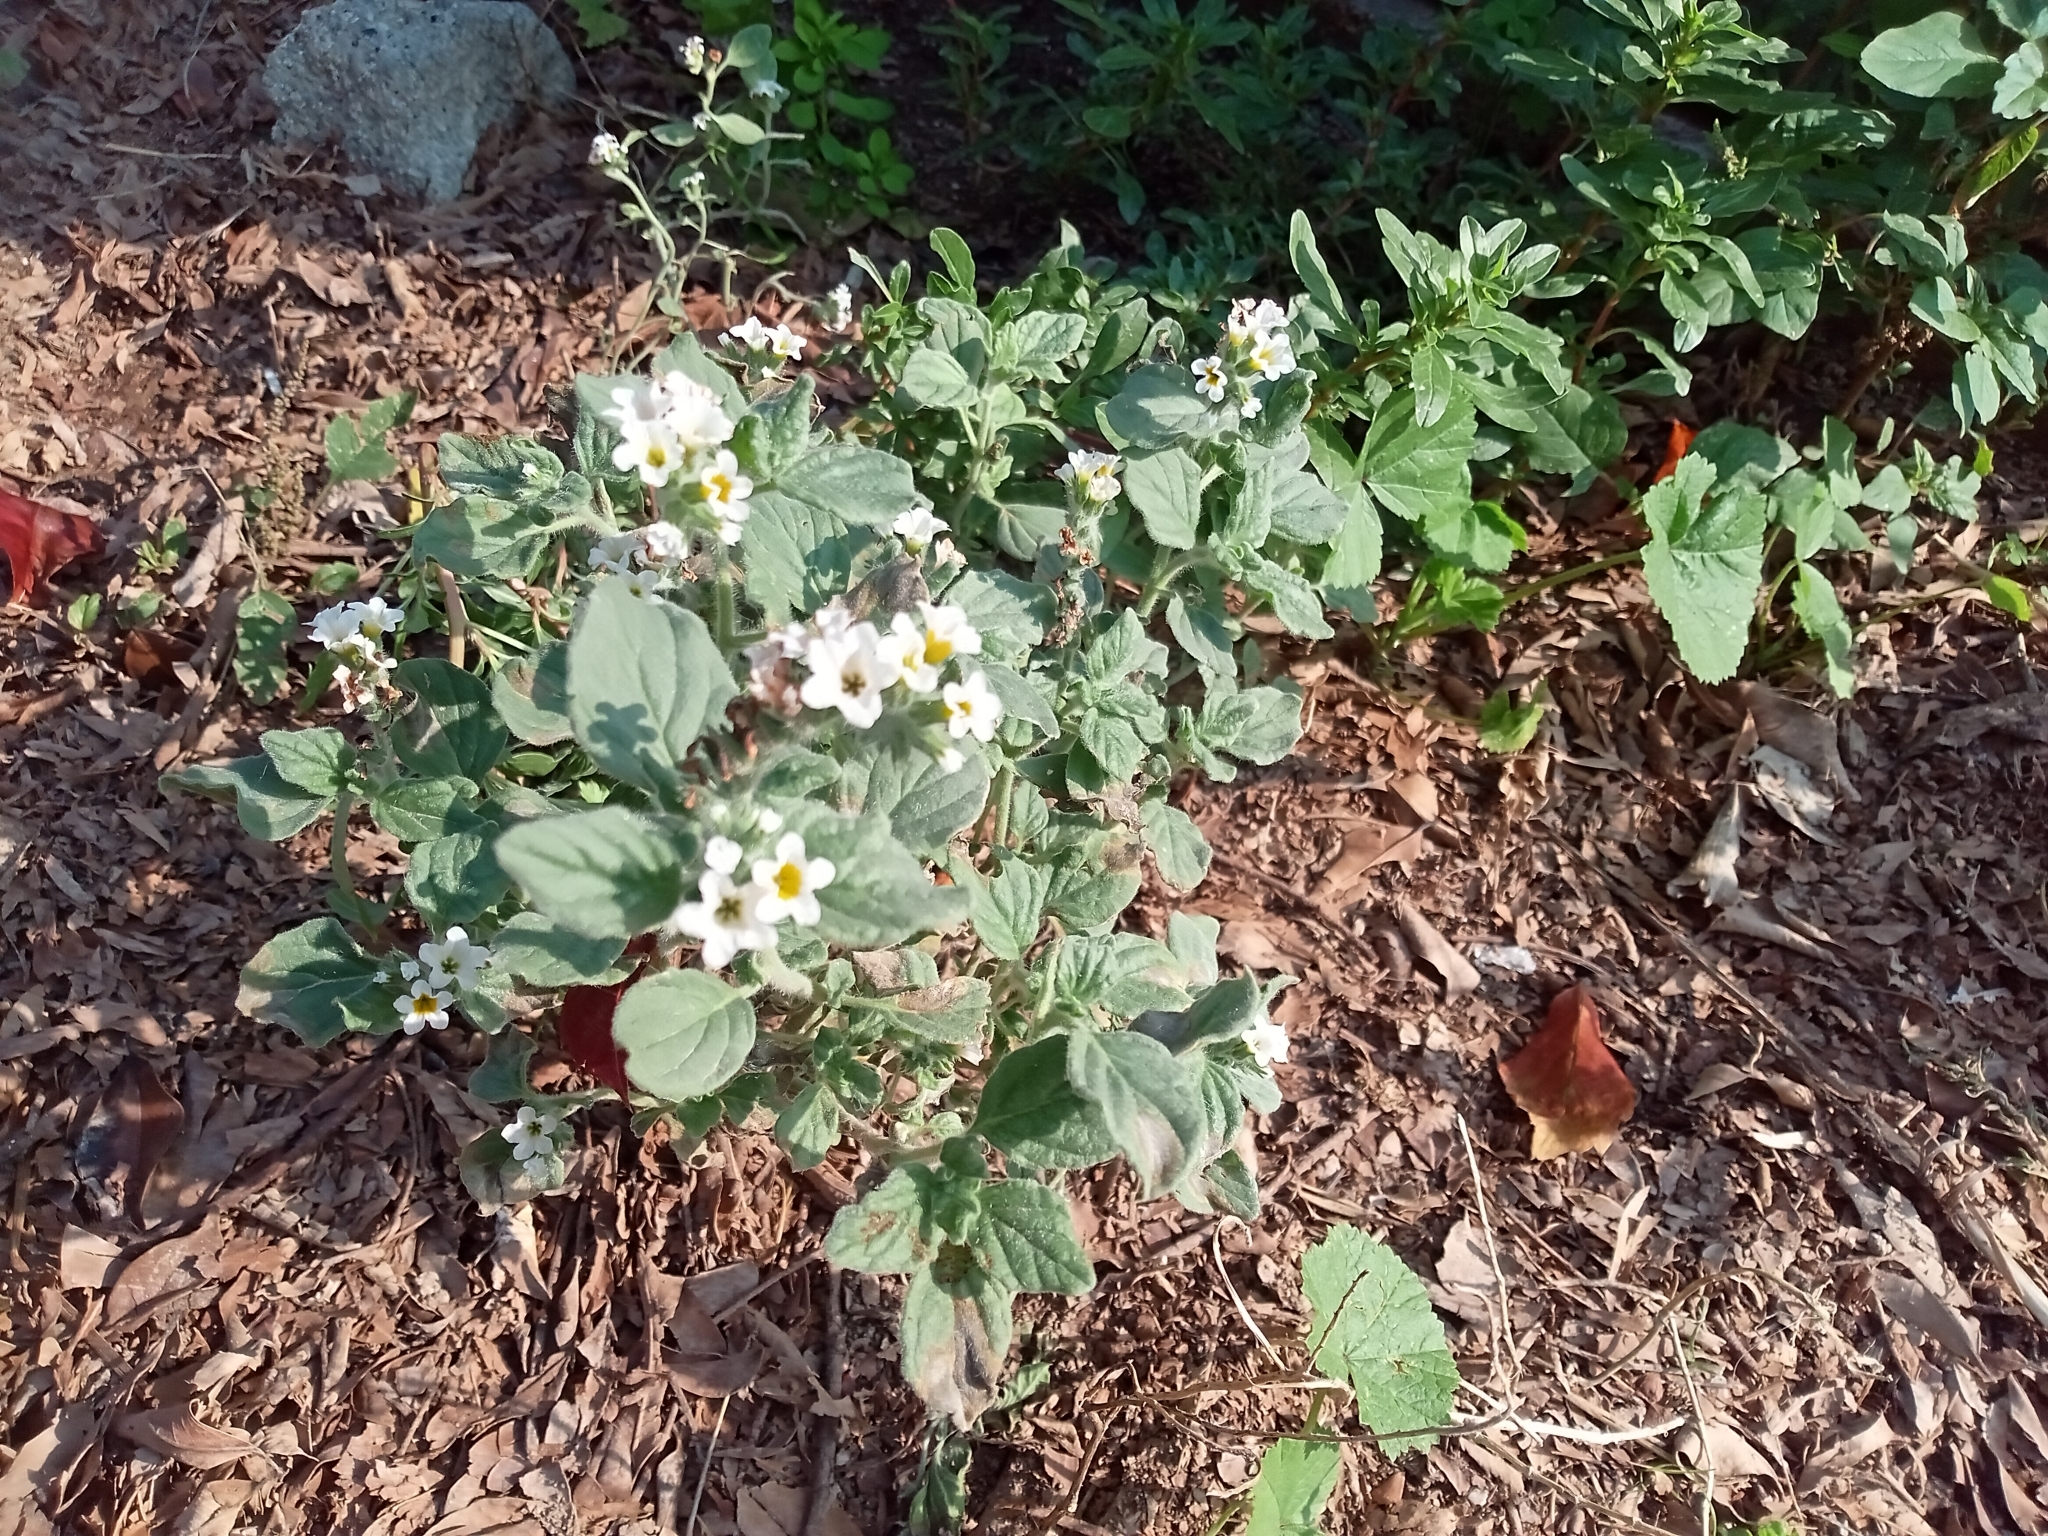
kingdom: Plantae
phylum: Tracheophyta
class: Magnoliopsida
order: Boraginales
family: Heliotropiaceae
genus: Heliotropium
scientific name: Heliotropium hirsutissimum
